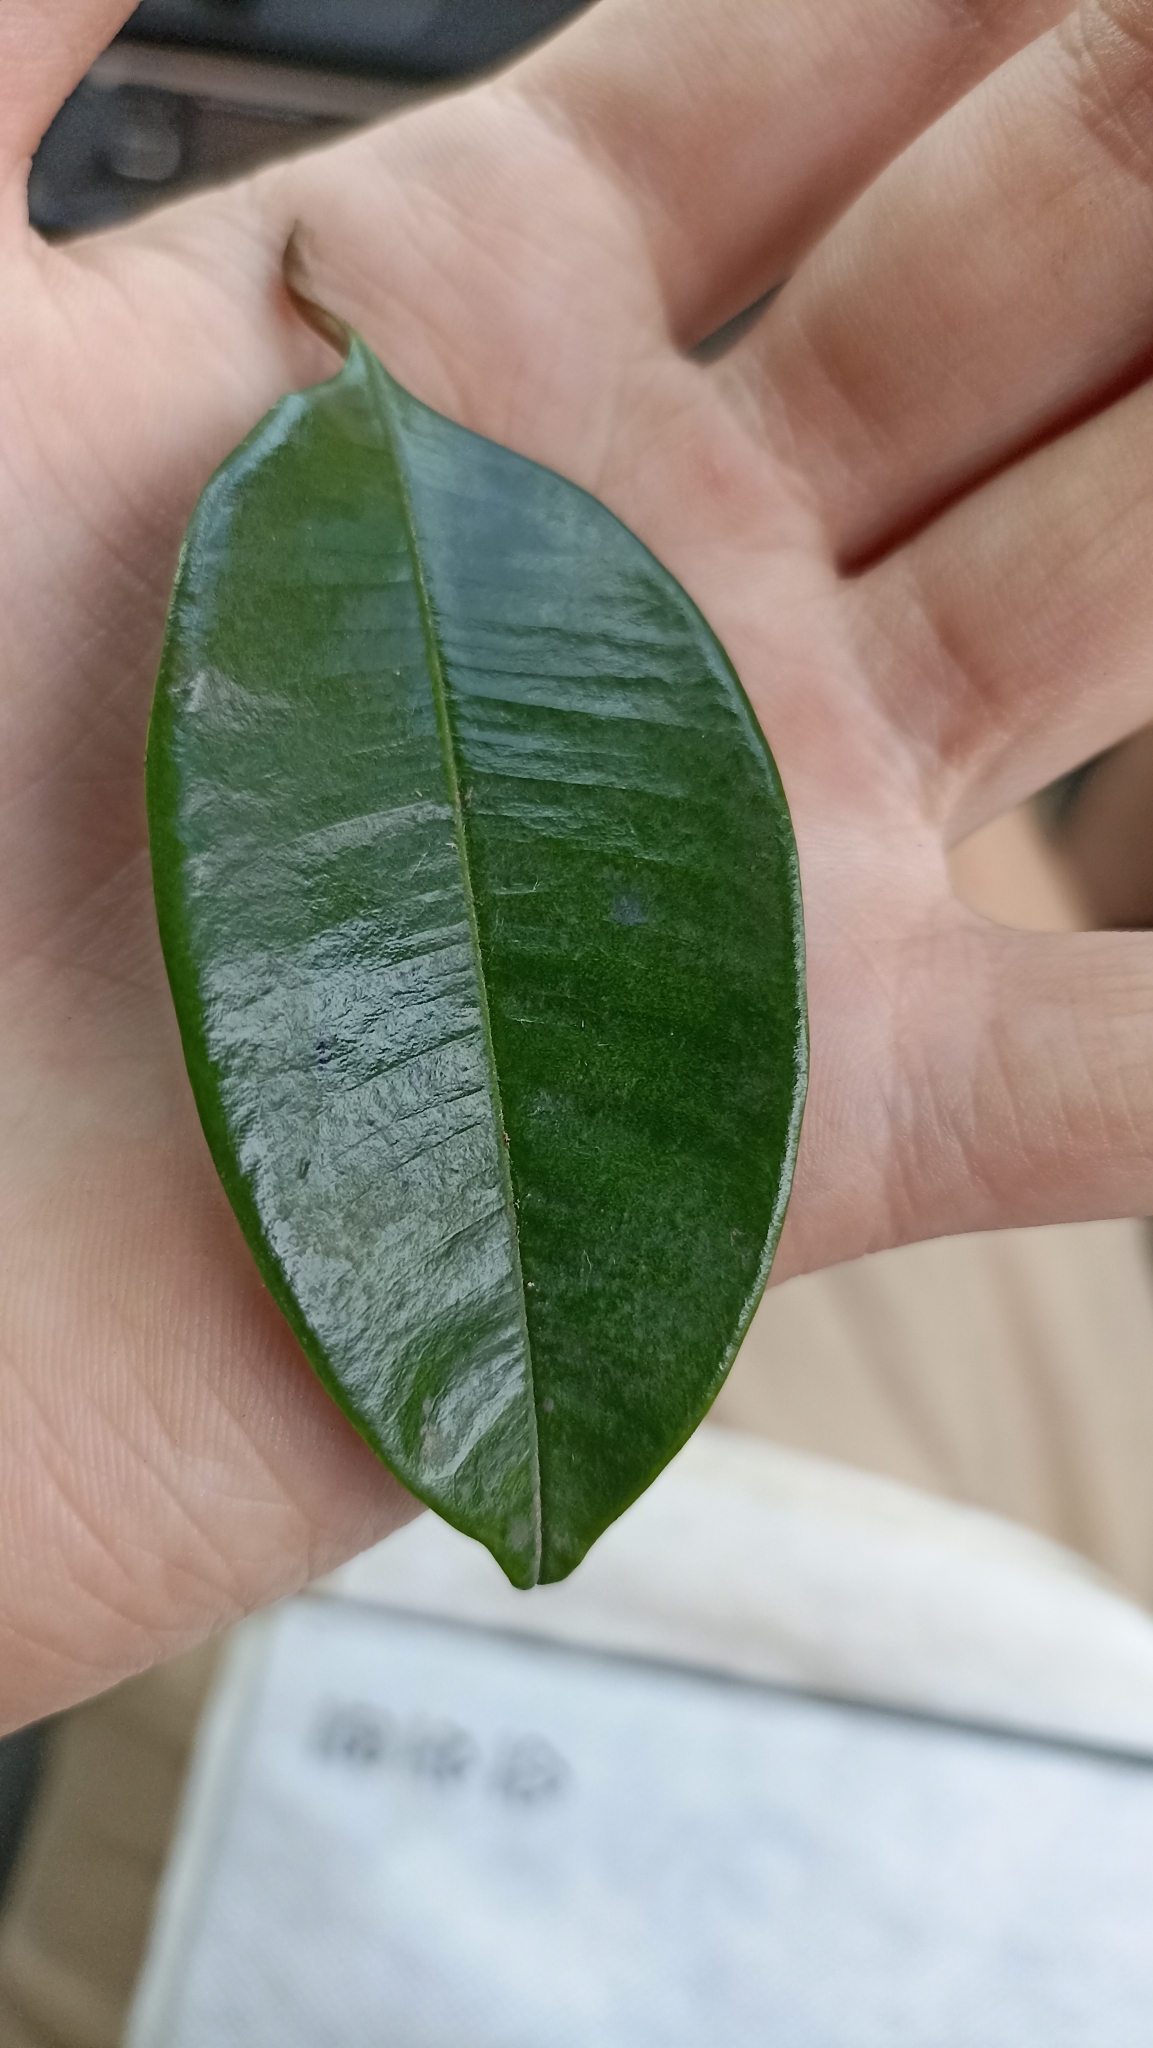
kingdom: Plantae
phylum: Tracheophyta
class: Magnoliopsida
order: Ericales
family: Sapotaceae
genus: Chrysophyllum
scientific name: Chrysophyllum cainito
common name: Star-apple
